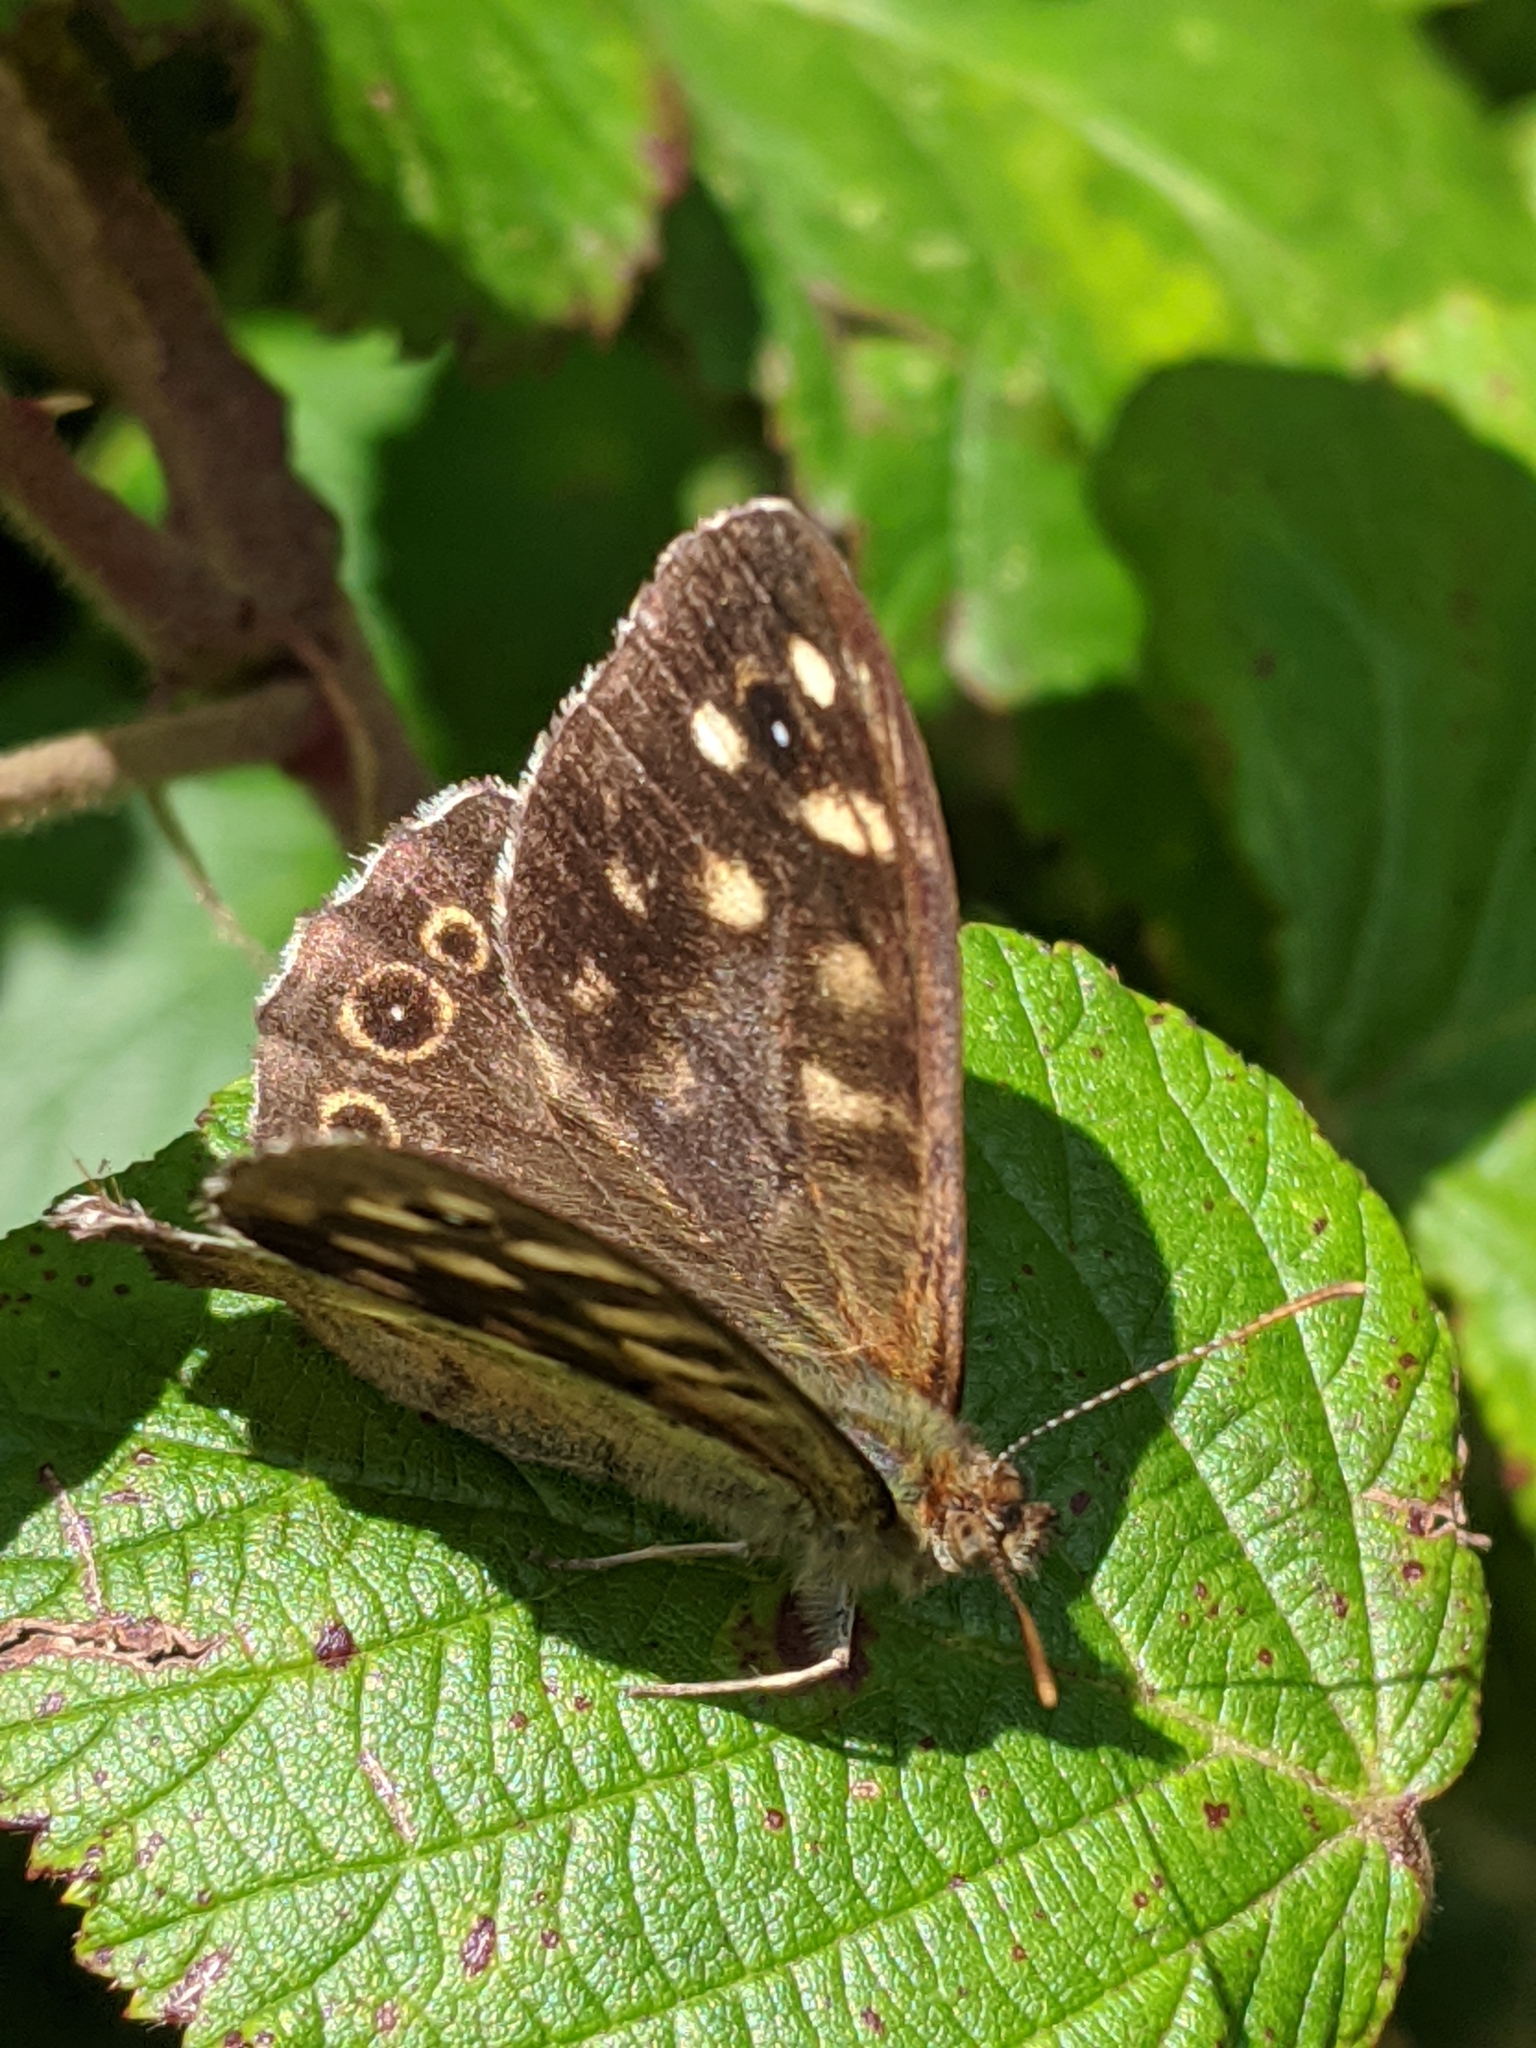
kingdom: Animalia
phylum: Arthropoda
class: Insecta
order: Lepidoptera
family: Nymphalidae
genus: Pararge
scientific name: Pararge aegeria
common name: Speckled wood
